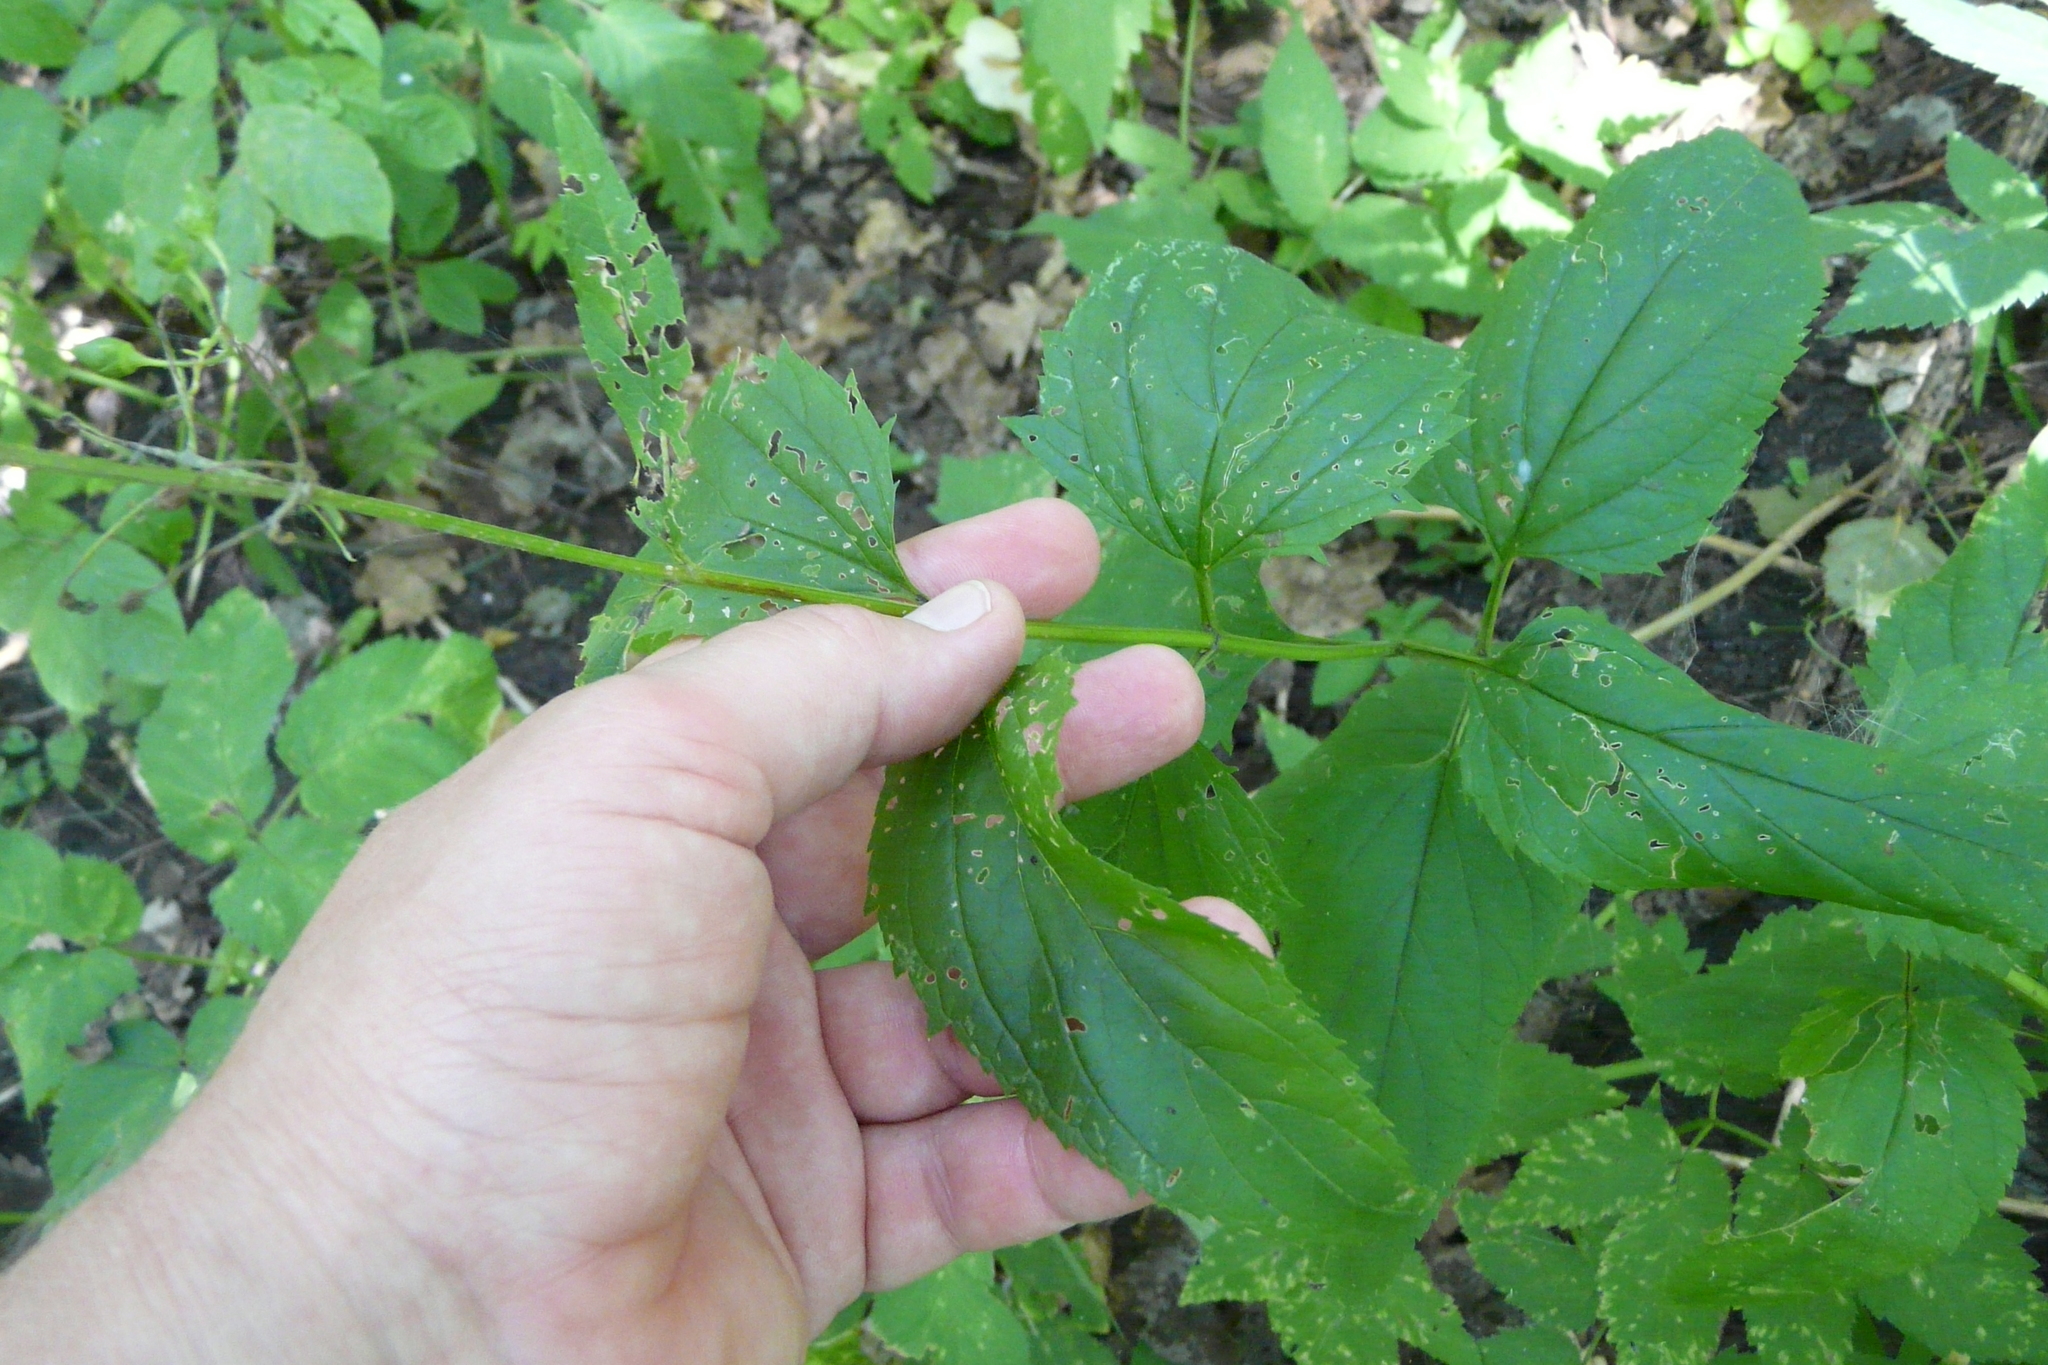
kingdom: Plantae
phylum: Tracheophyta
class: Magnoliopsida
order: Lamiales
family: Scrophulariaceae
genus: Scrophularia
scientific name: Scrophularia nodosa
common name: Common figwort
